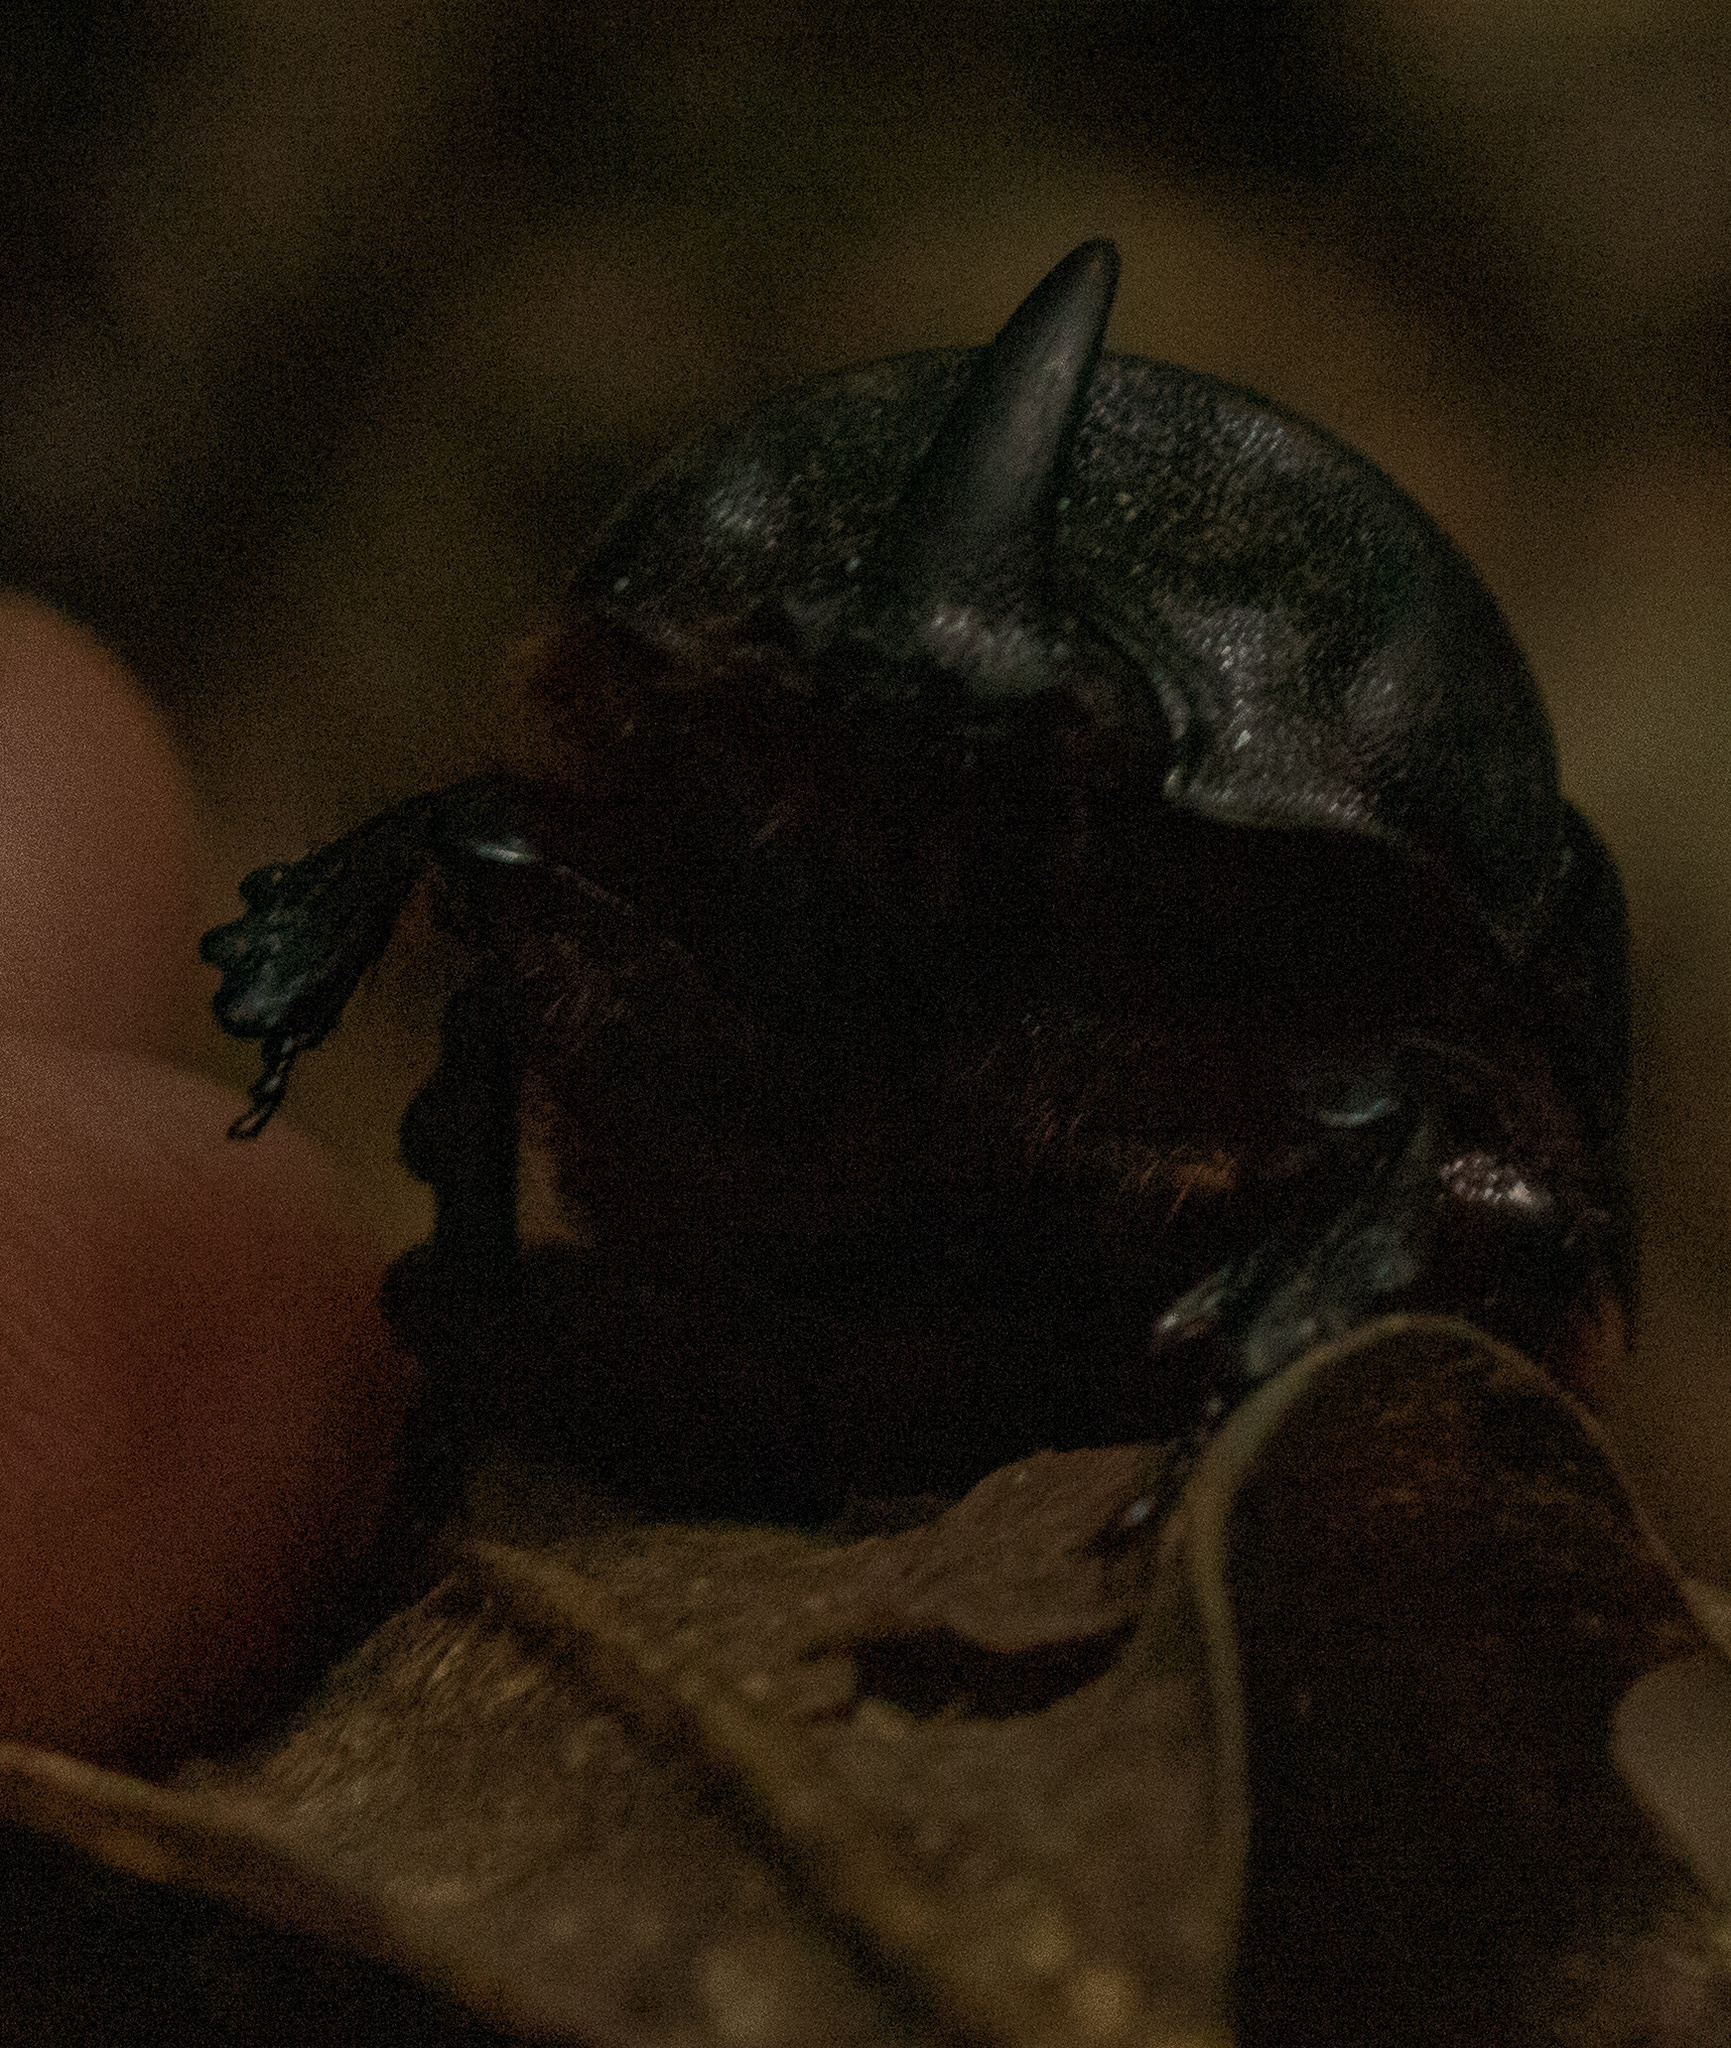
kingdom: Animalia
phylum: Arthropoda
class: Insecta
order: Coleoptera
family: Scarabaeidae
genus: Xyloryctes
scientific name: Xyloryctes jamaicensis
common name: Eastern rhinoceros beetle
